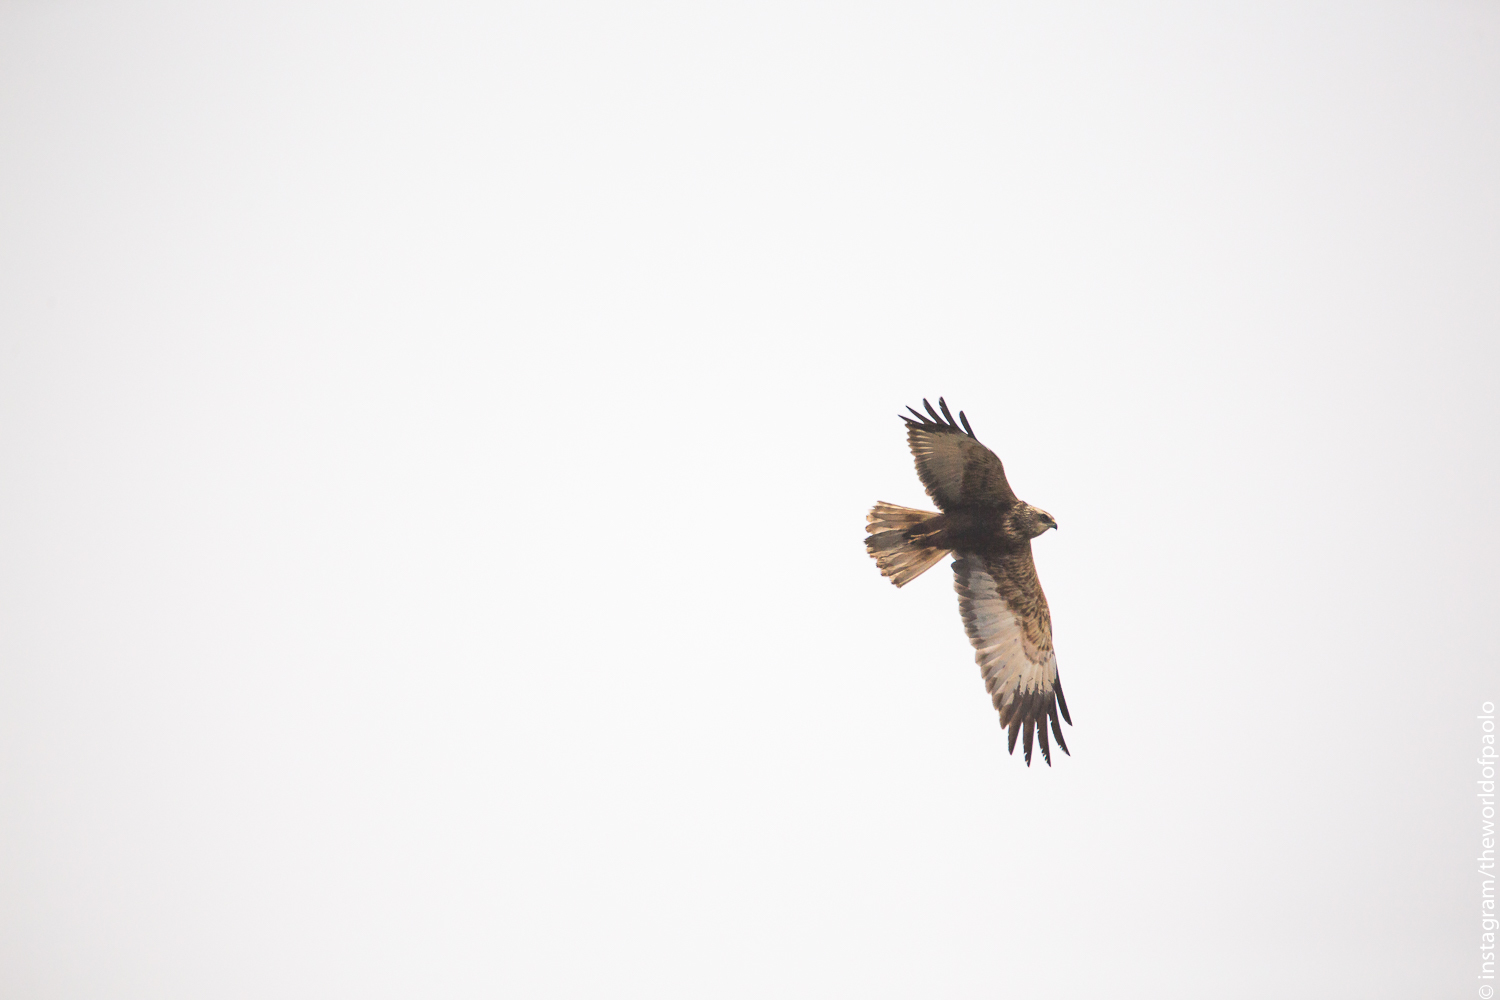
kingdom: Animalia
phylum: Chordata
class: Aves
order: Accipitriformes
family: Accipitridae
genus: Circus
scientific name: Circus aeruginosus
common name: Western marsh harrier
